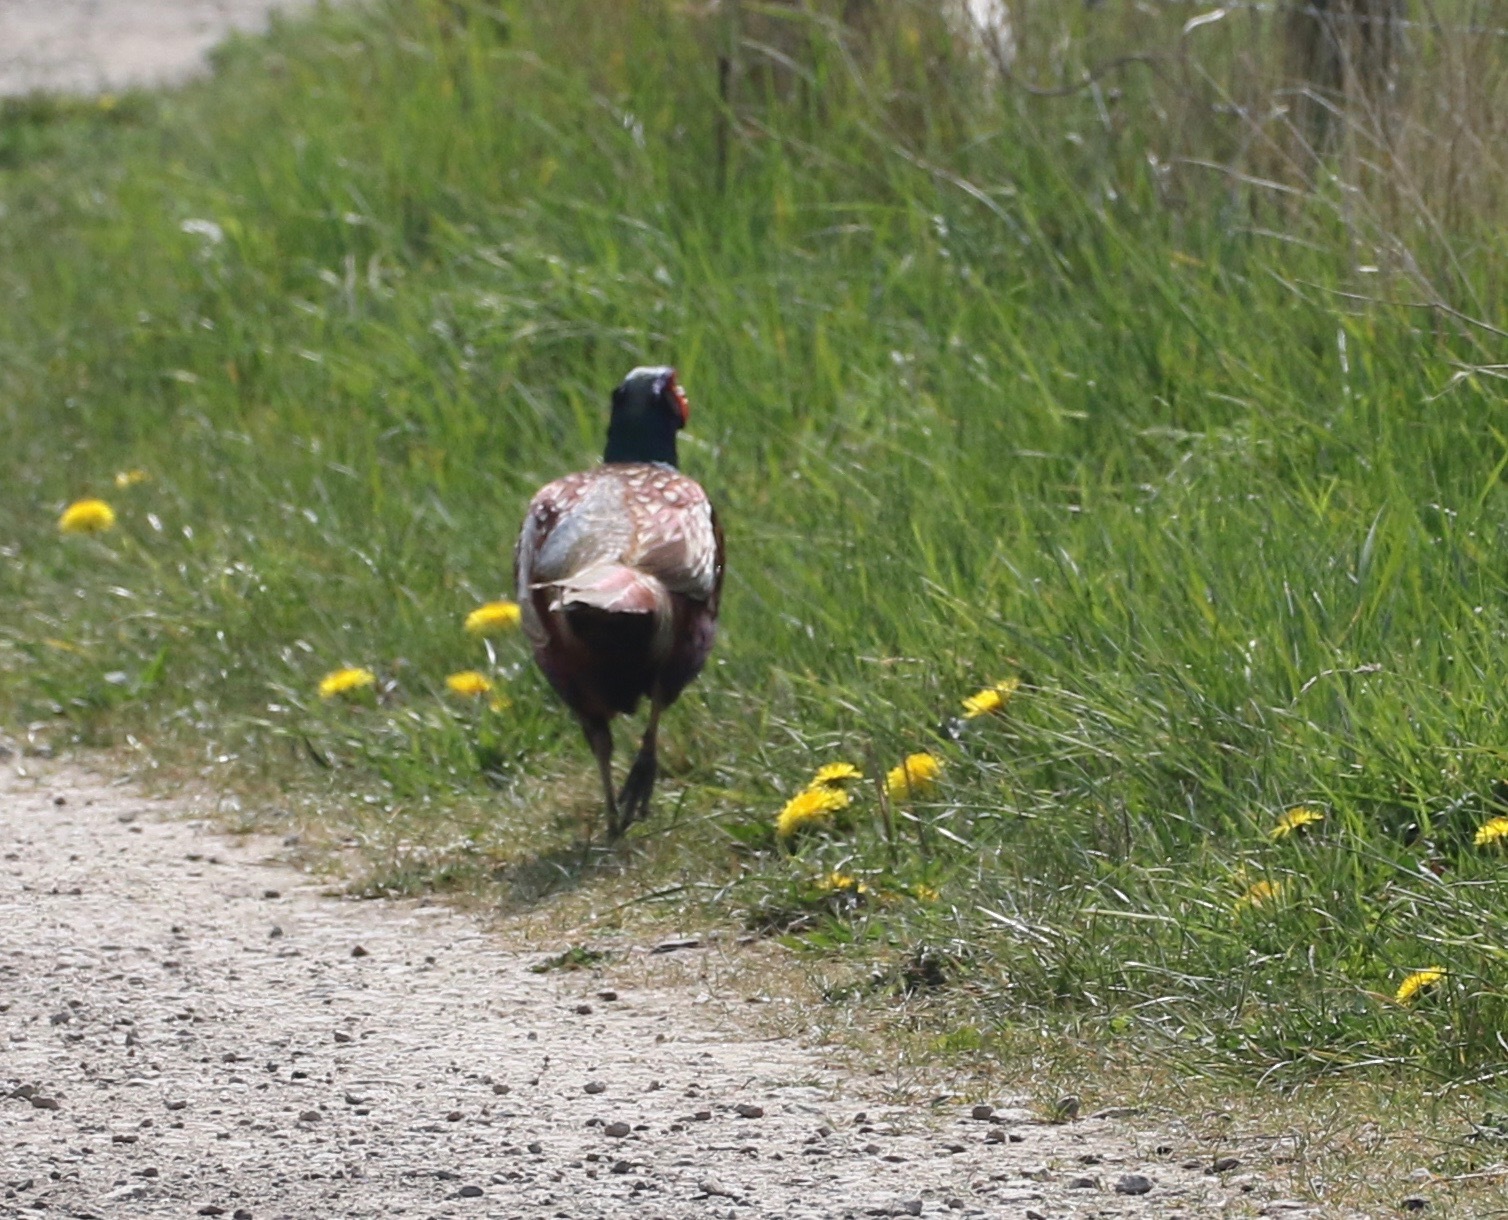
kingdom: Animalia
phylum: Chordata
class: Aves
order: Galliformes
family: Phasianidae
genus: Phasianus
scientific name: Phasianus colchicus
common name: Common pheasant
